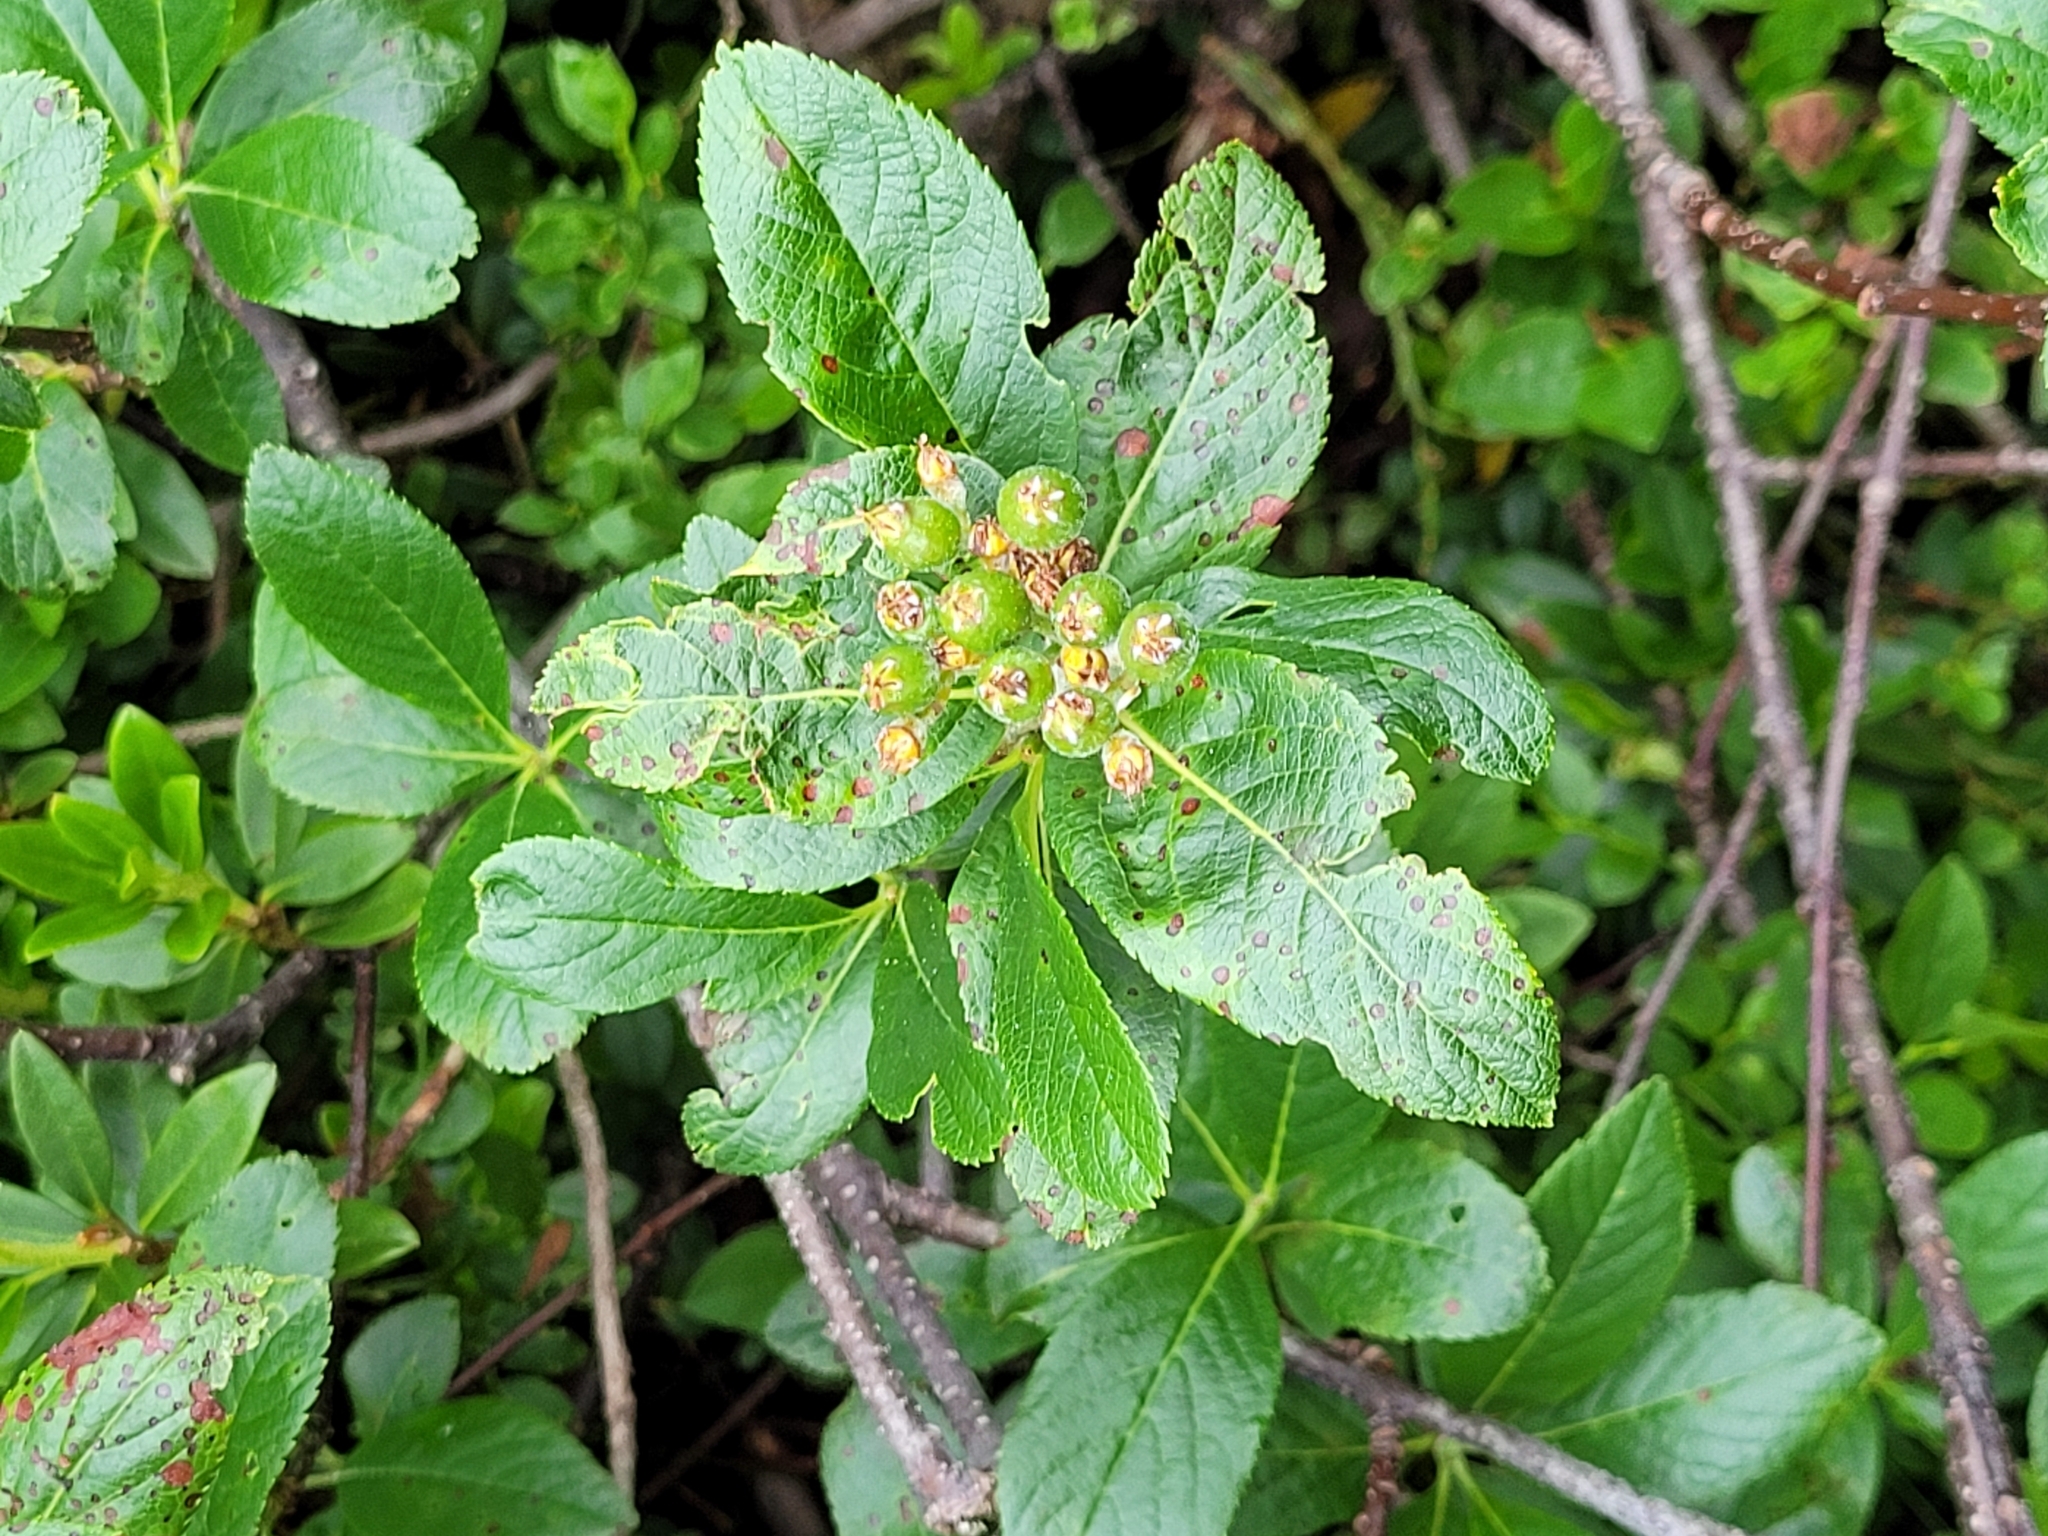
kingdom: Plantae
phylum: Tracheophyta
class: Magnoliopsida
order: Rosales
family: Rosaceae
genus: Chamaemespilus
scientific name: Chamaemespilus alpina
